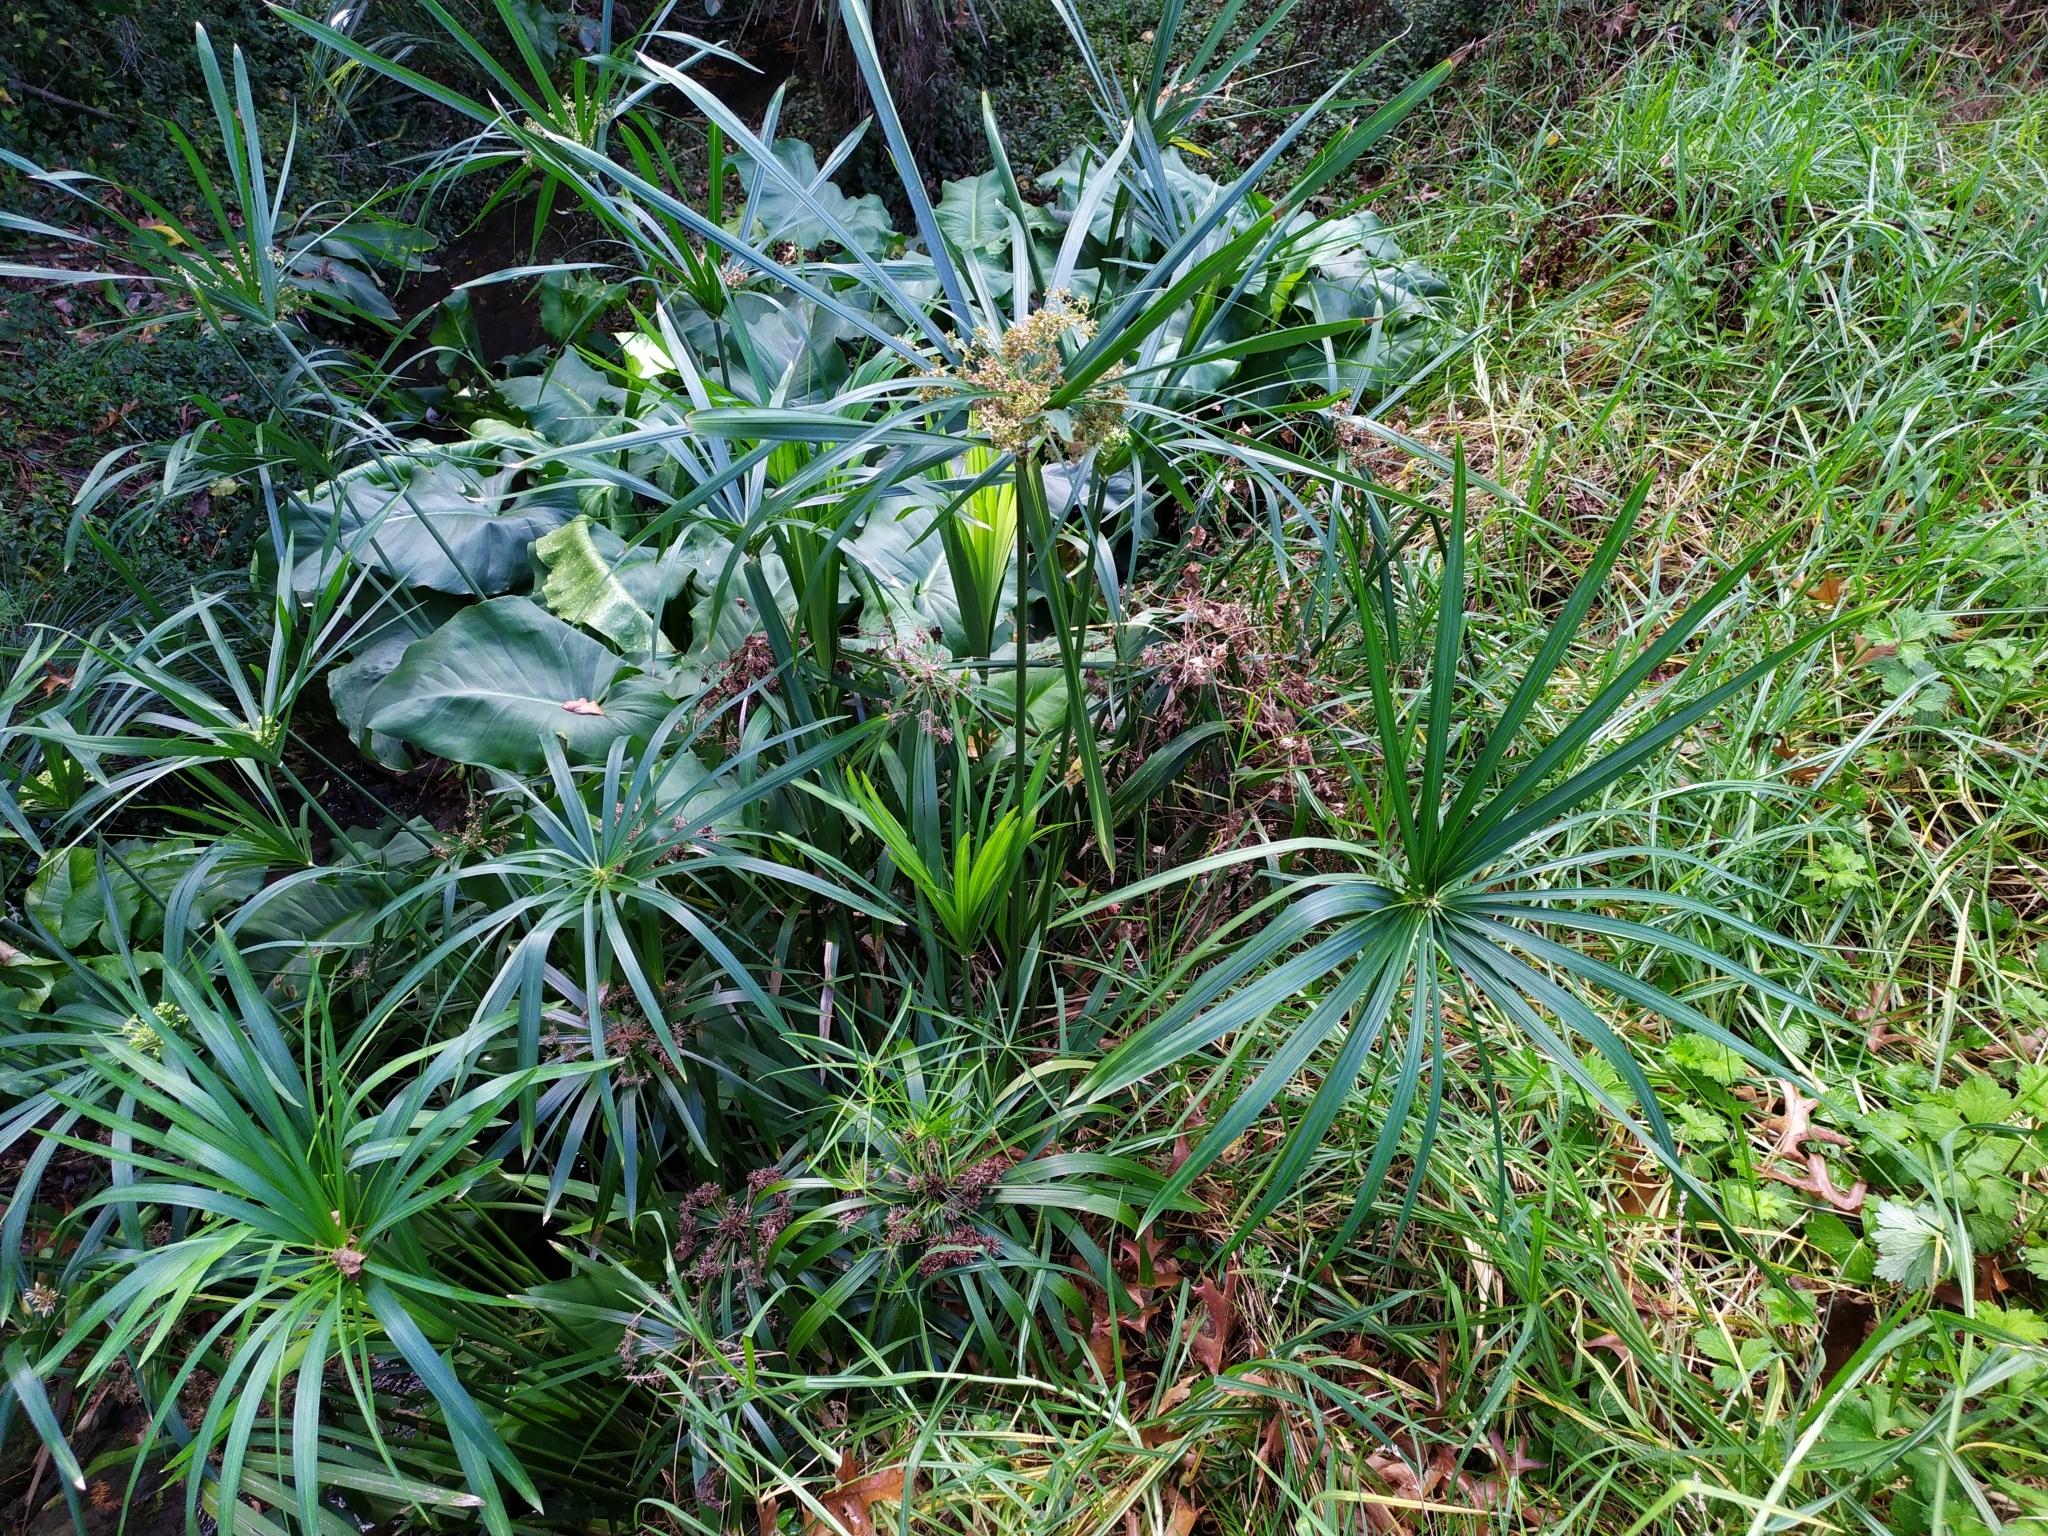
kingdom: Plantae
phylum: Tracheophyta
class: Liliopsida
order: Poales
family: Cyperaceae
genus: Cyperus
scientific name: Cyperus alternifolius
